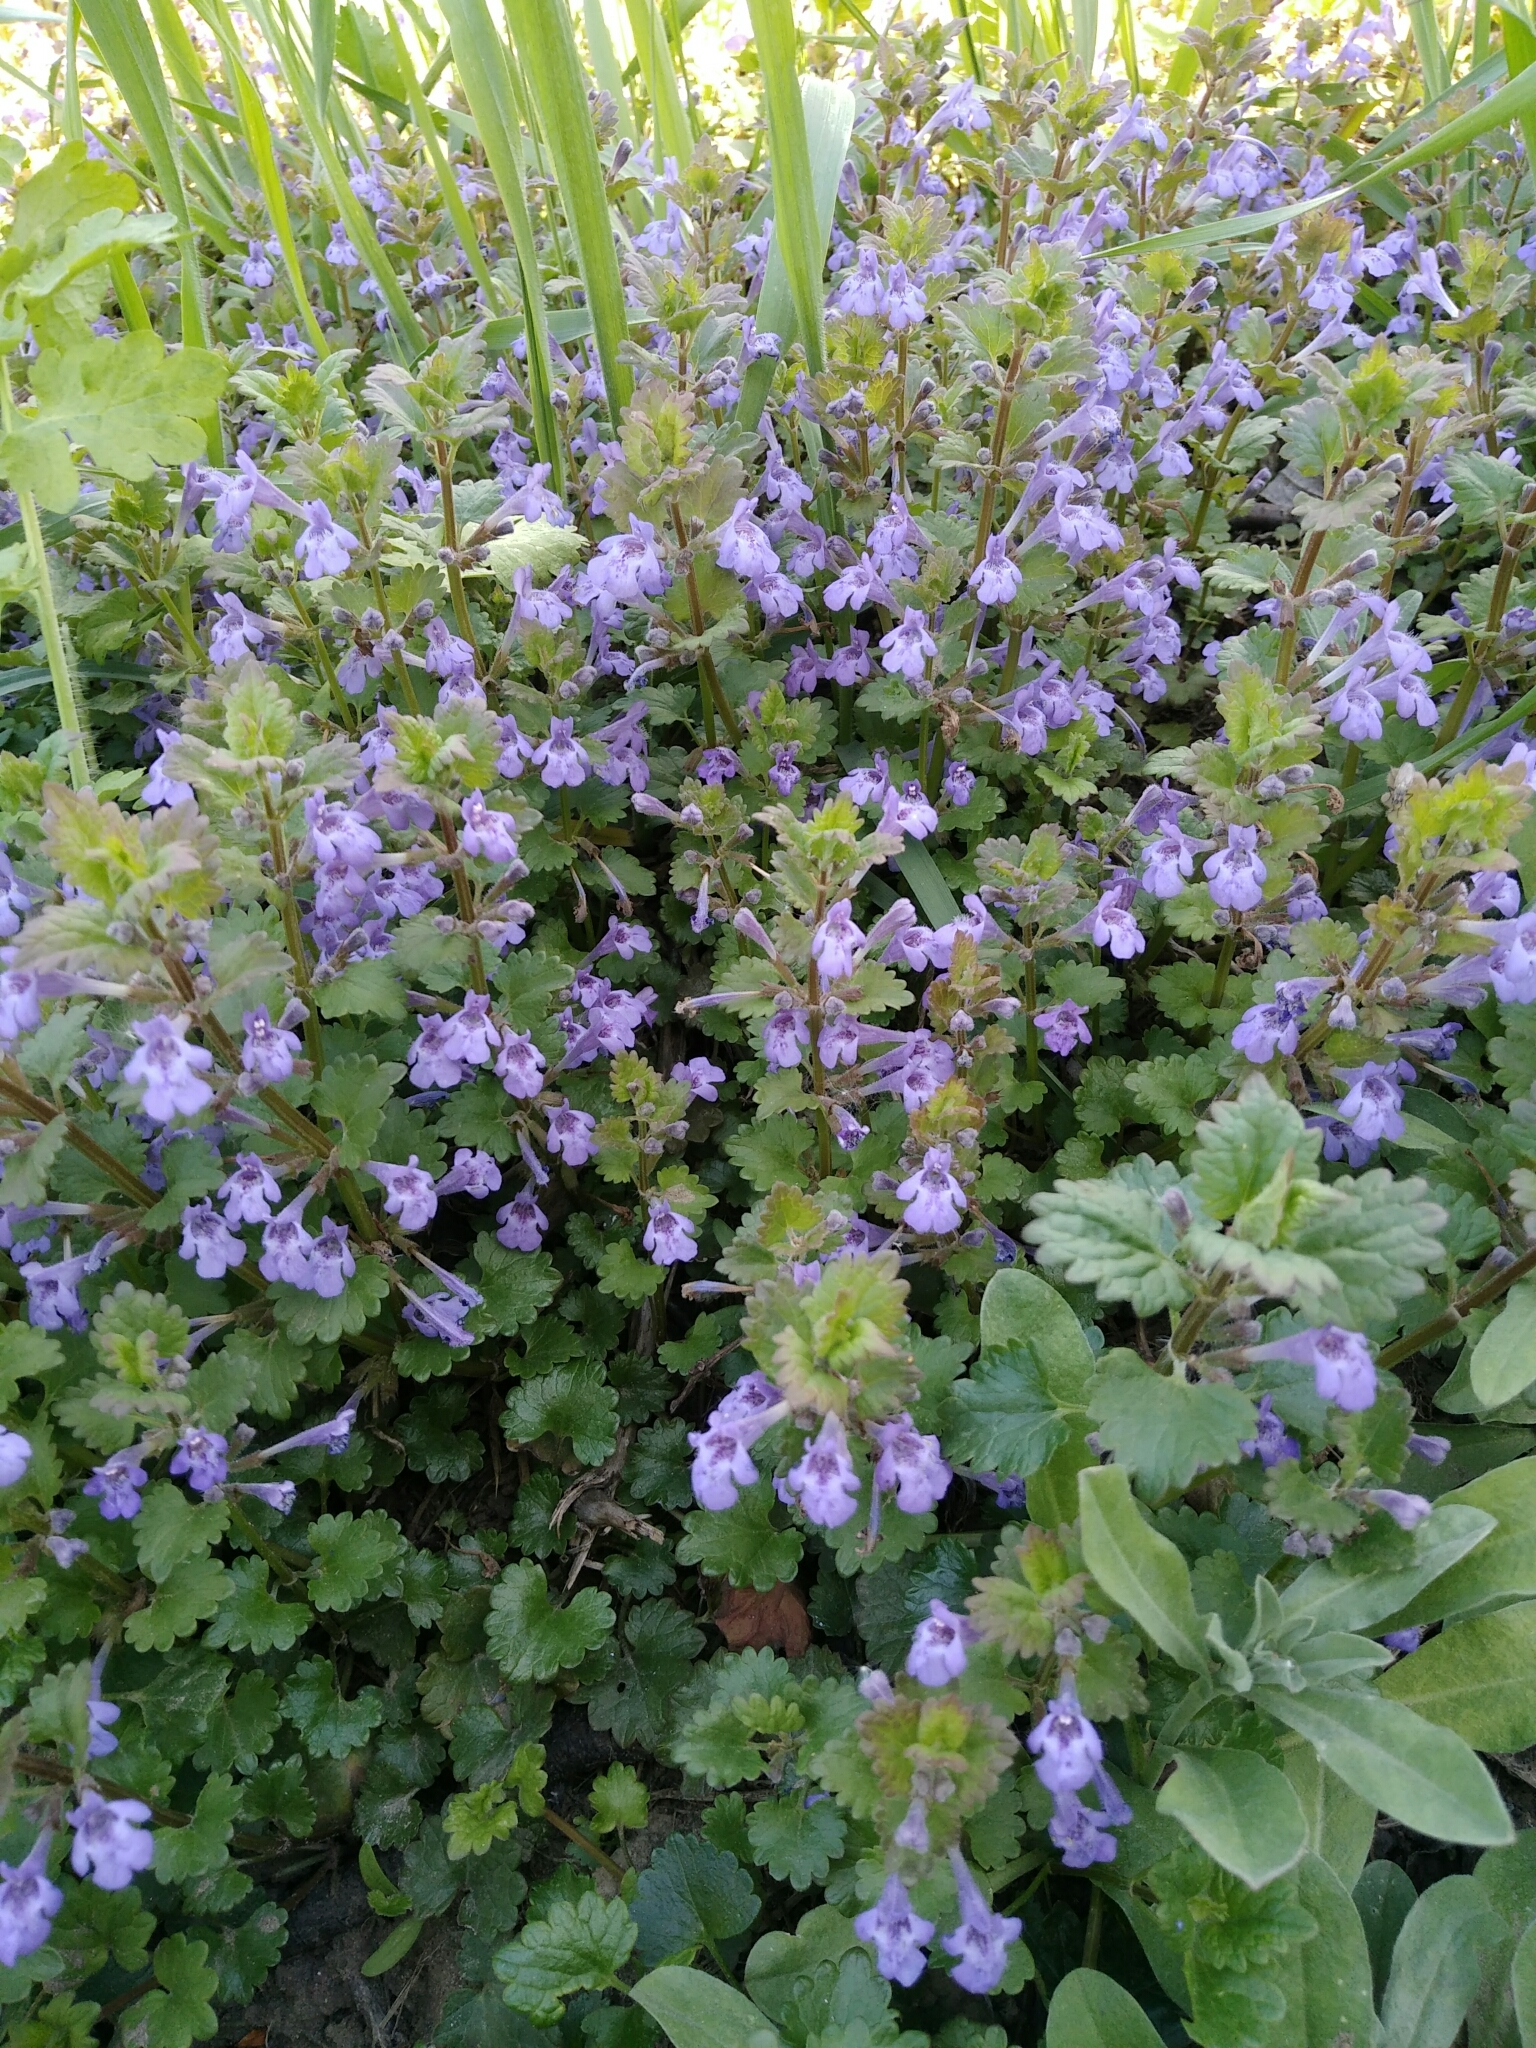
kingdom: Plantae
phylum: Tracheophyta
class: Magnoliopsida
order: Lamiales
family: Lamiaceae
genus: Glechoma
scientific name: Glechoma hederacea
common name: Ground ivy
